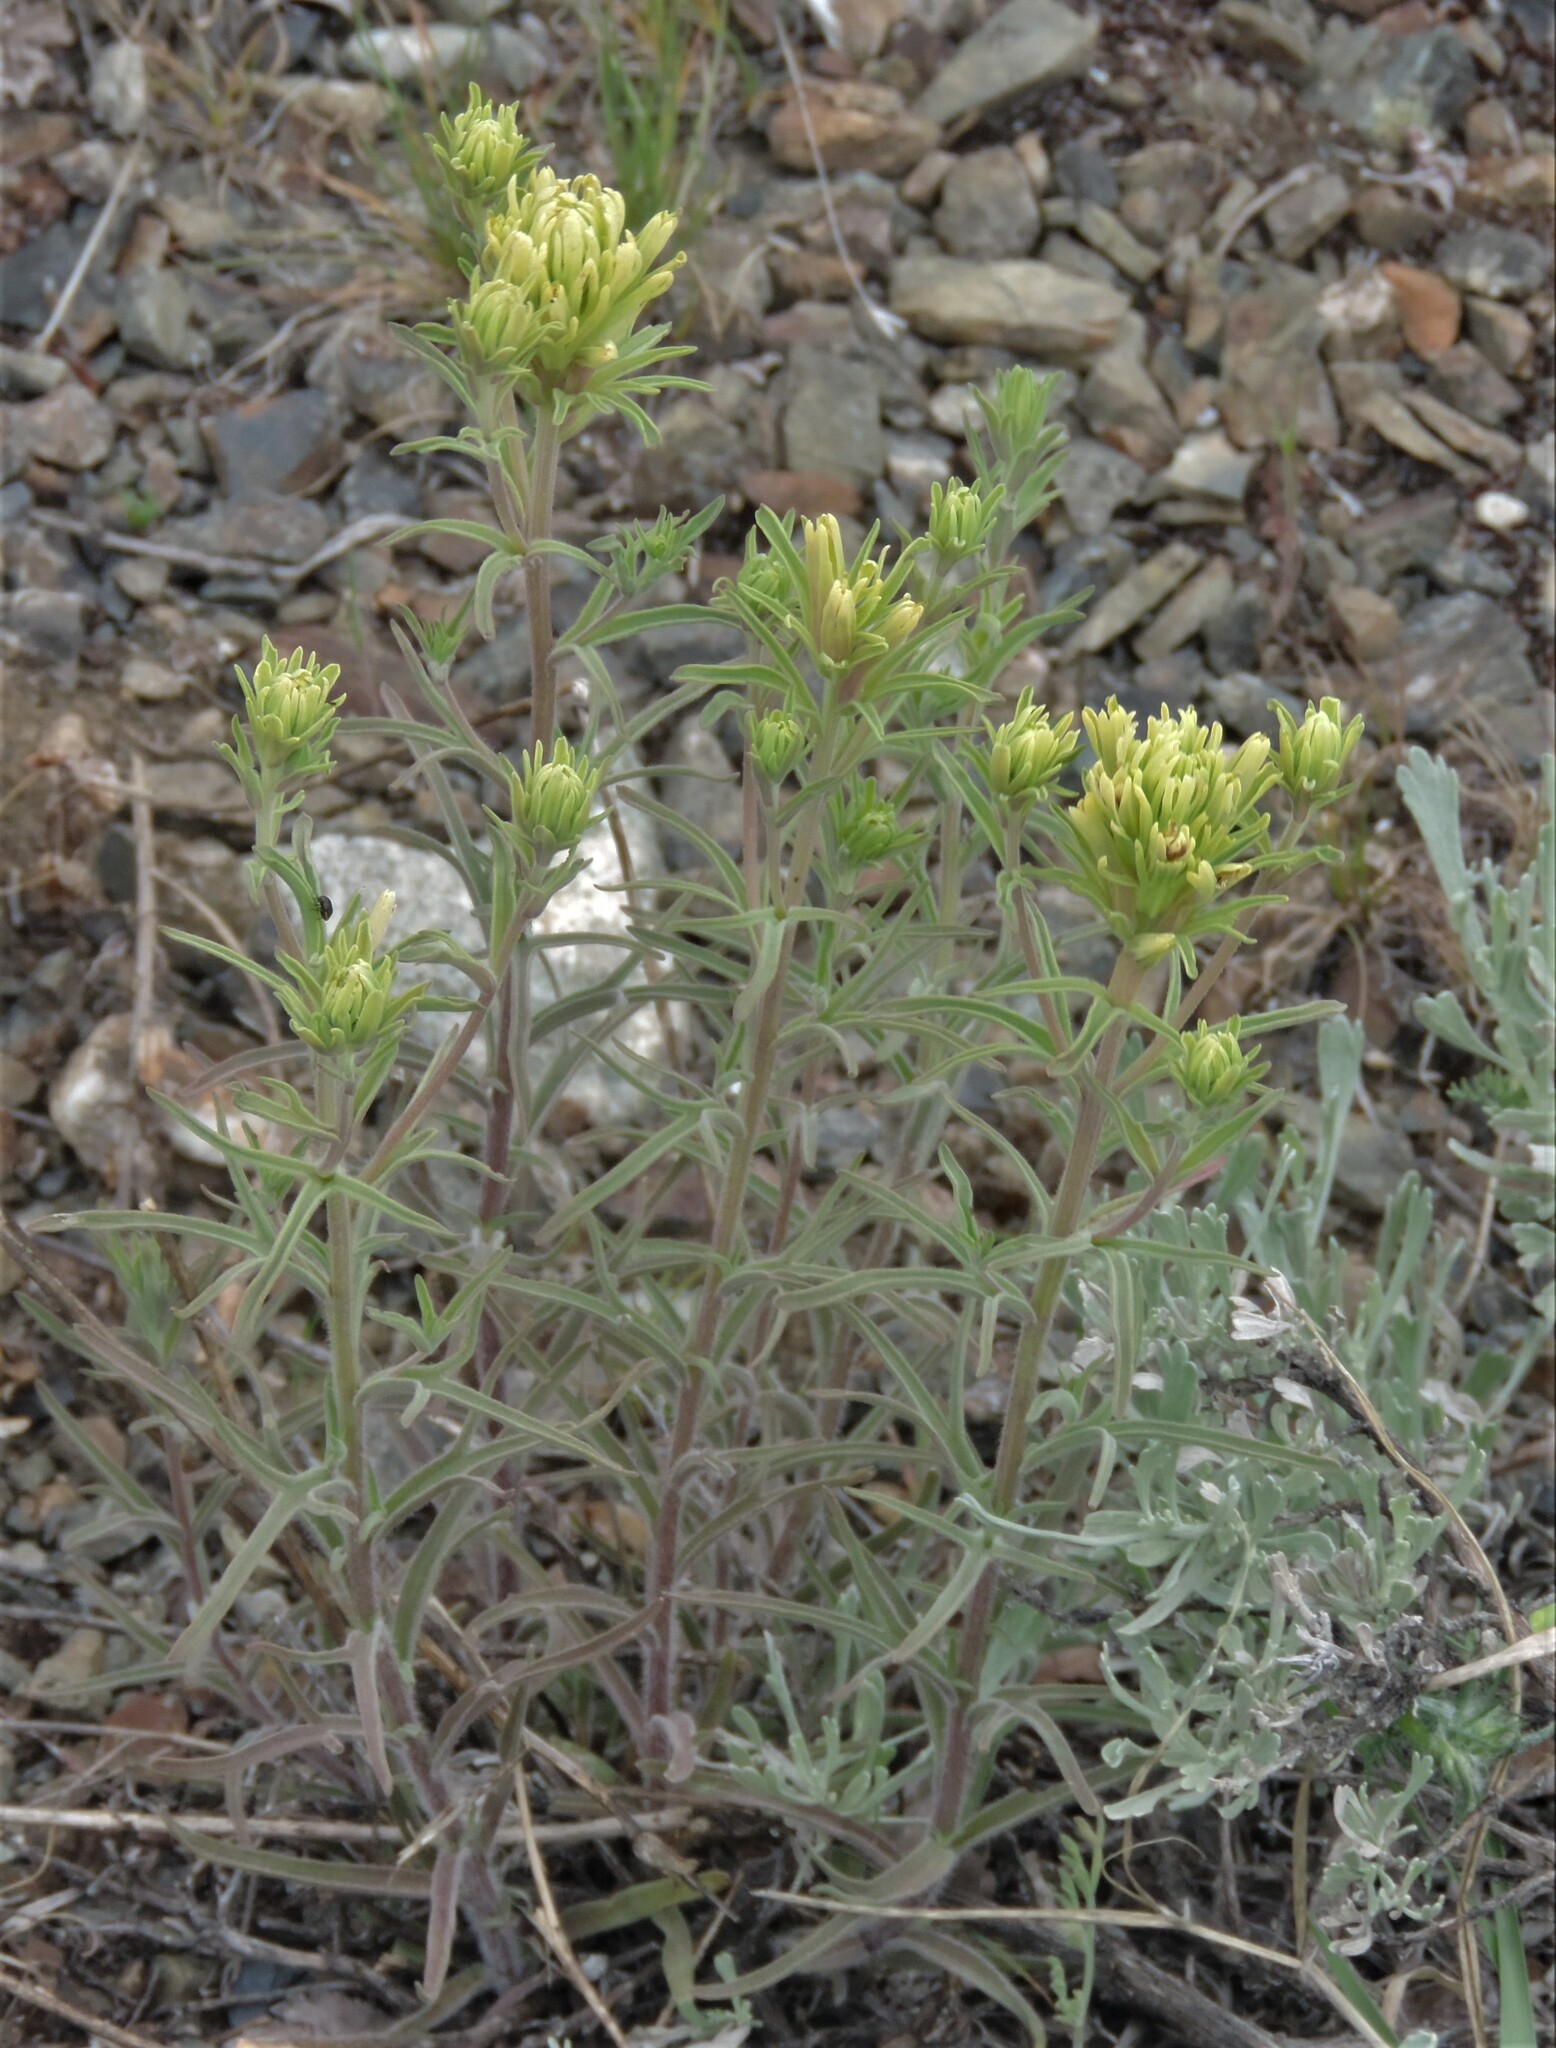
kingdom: Plantae
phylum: Tracheophyta
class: Magnoliopsida
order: Lamiales
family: Orobanchaceae
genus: Castilleja
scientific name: Castilleja thompsonii
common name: Thompson's paintbrush
